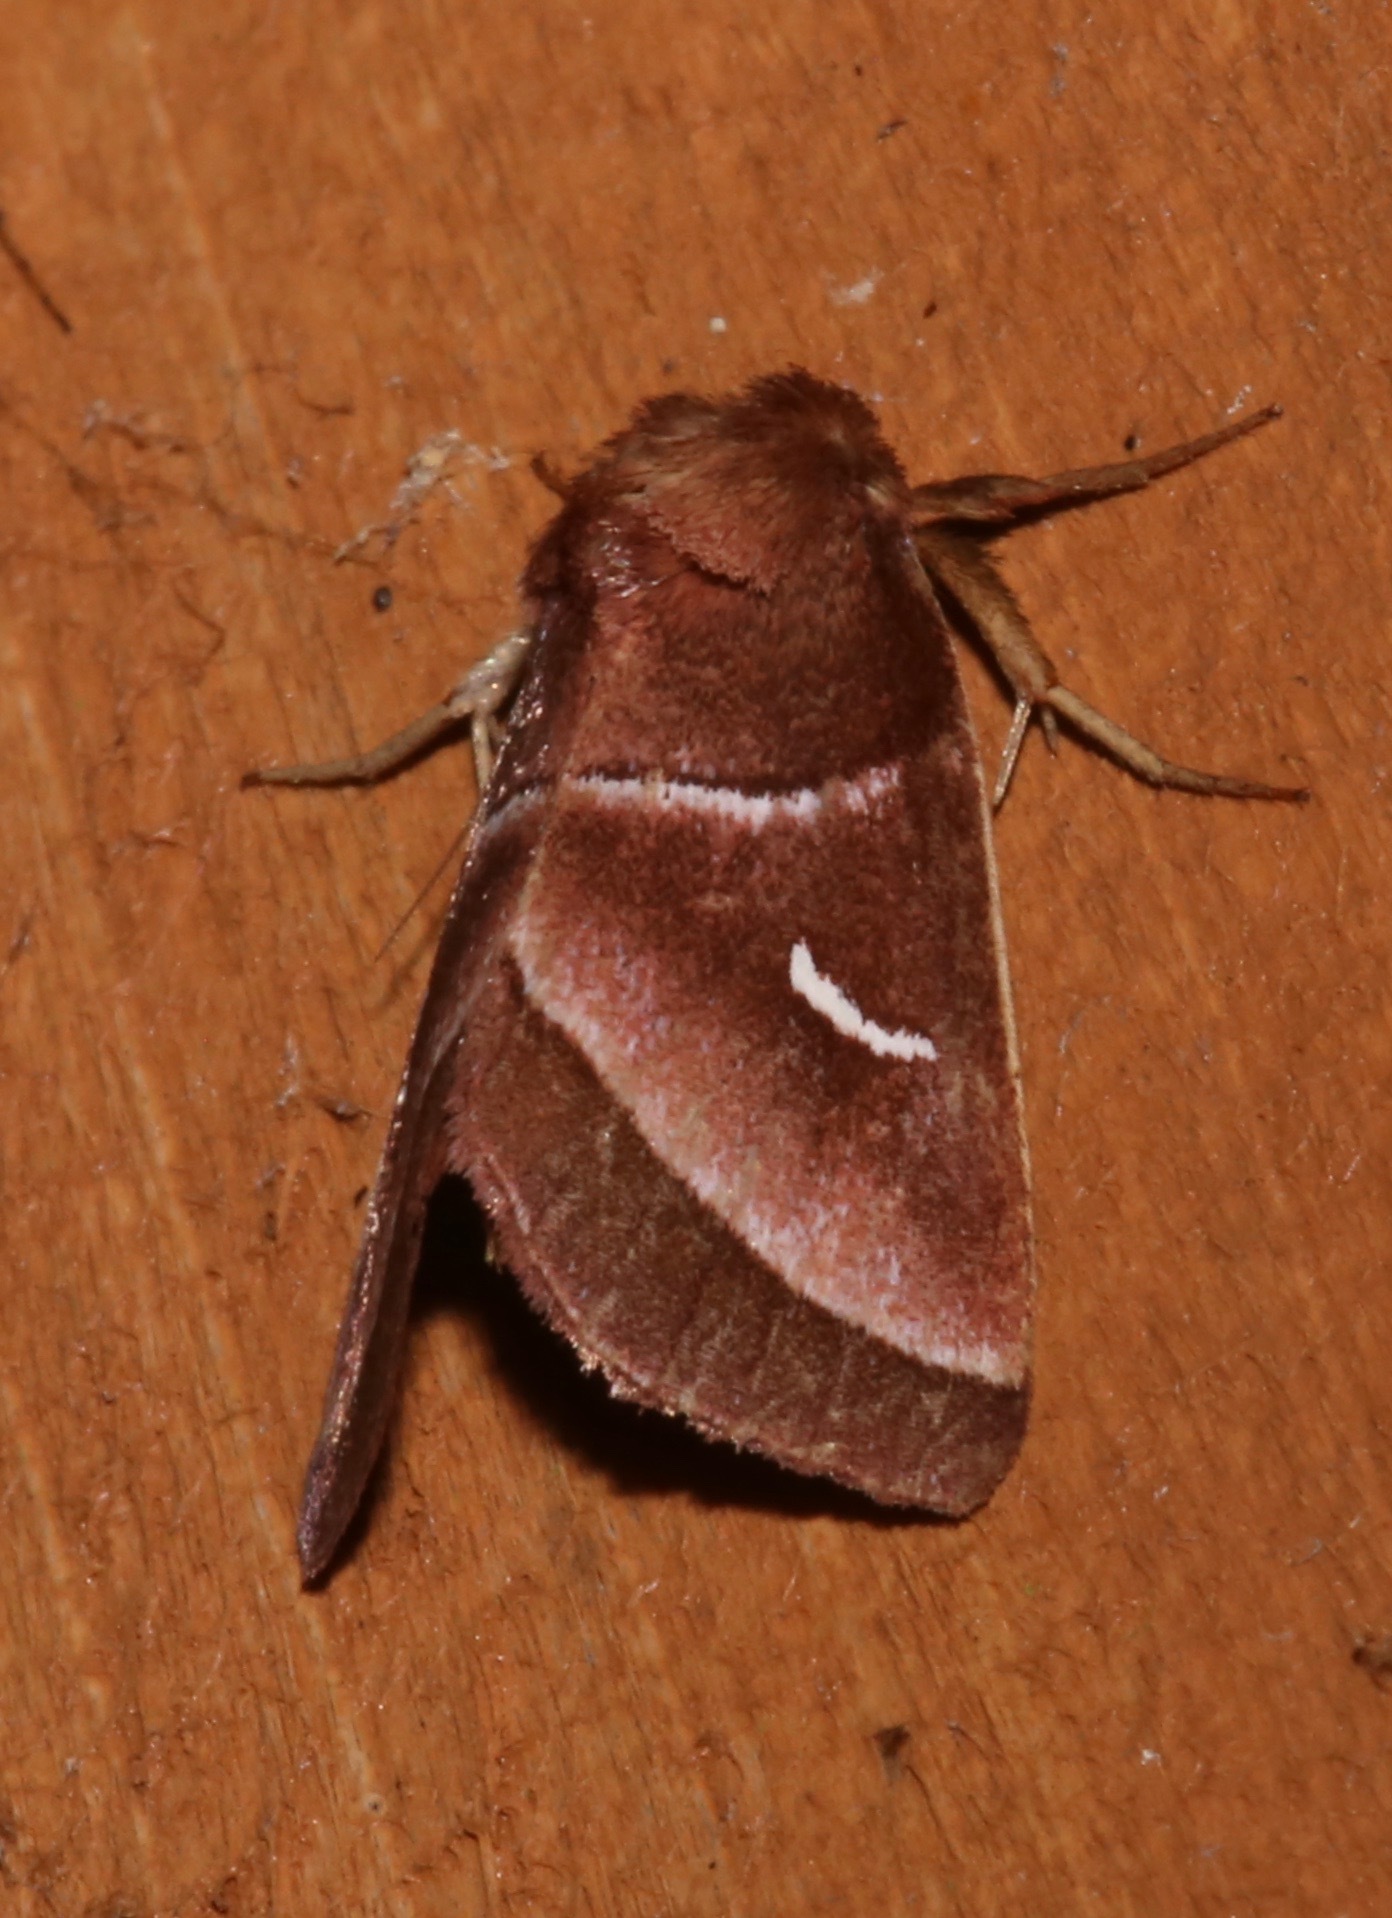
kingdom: Animalia
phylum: Arthropoda
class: Insecta
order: Lepidoptera
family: Noctuidae
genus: Fagitana
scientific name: Fagitana littera
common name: Marsh fern moth
